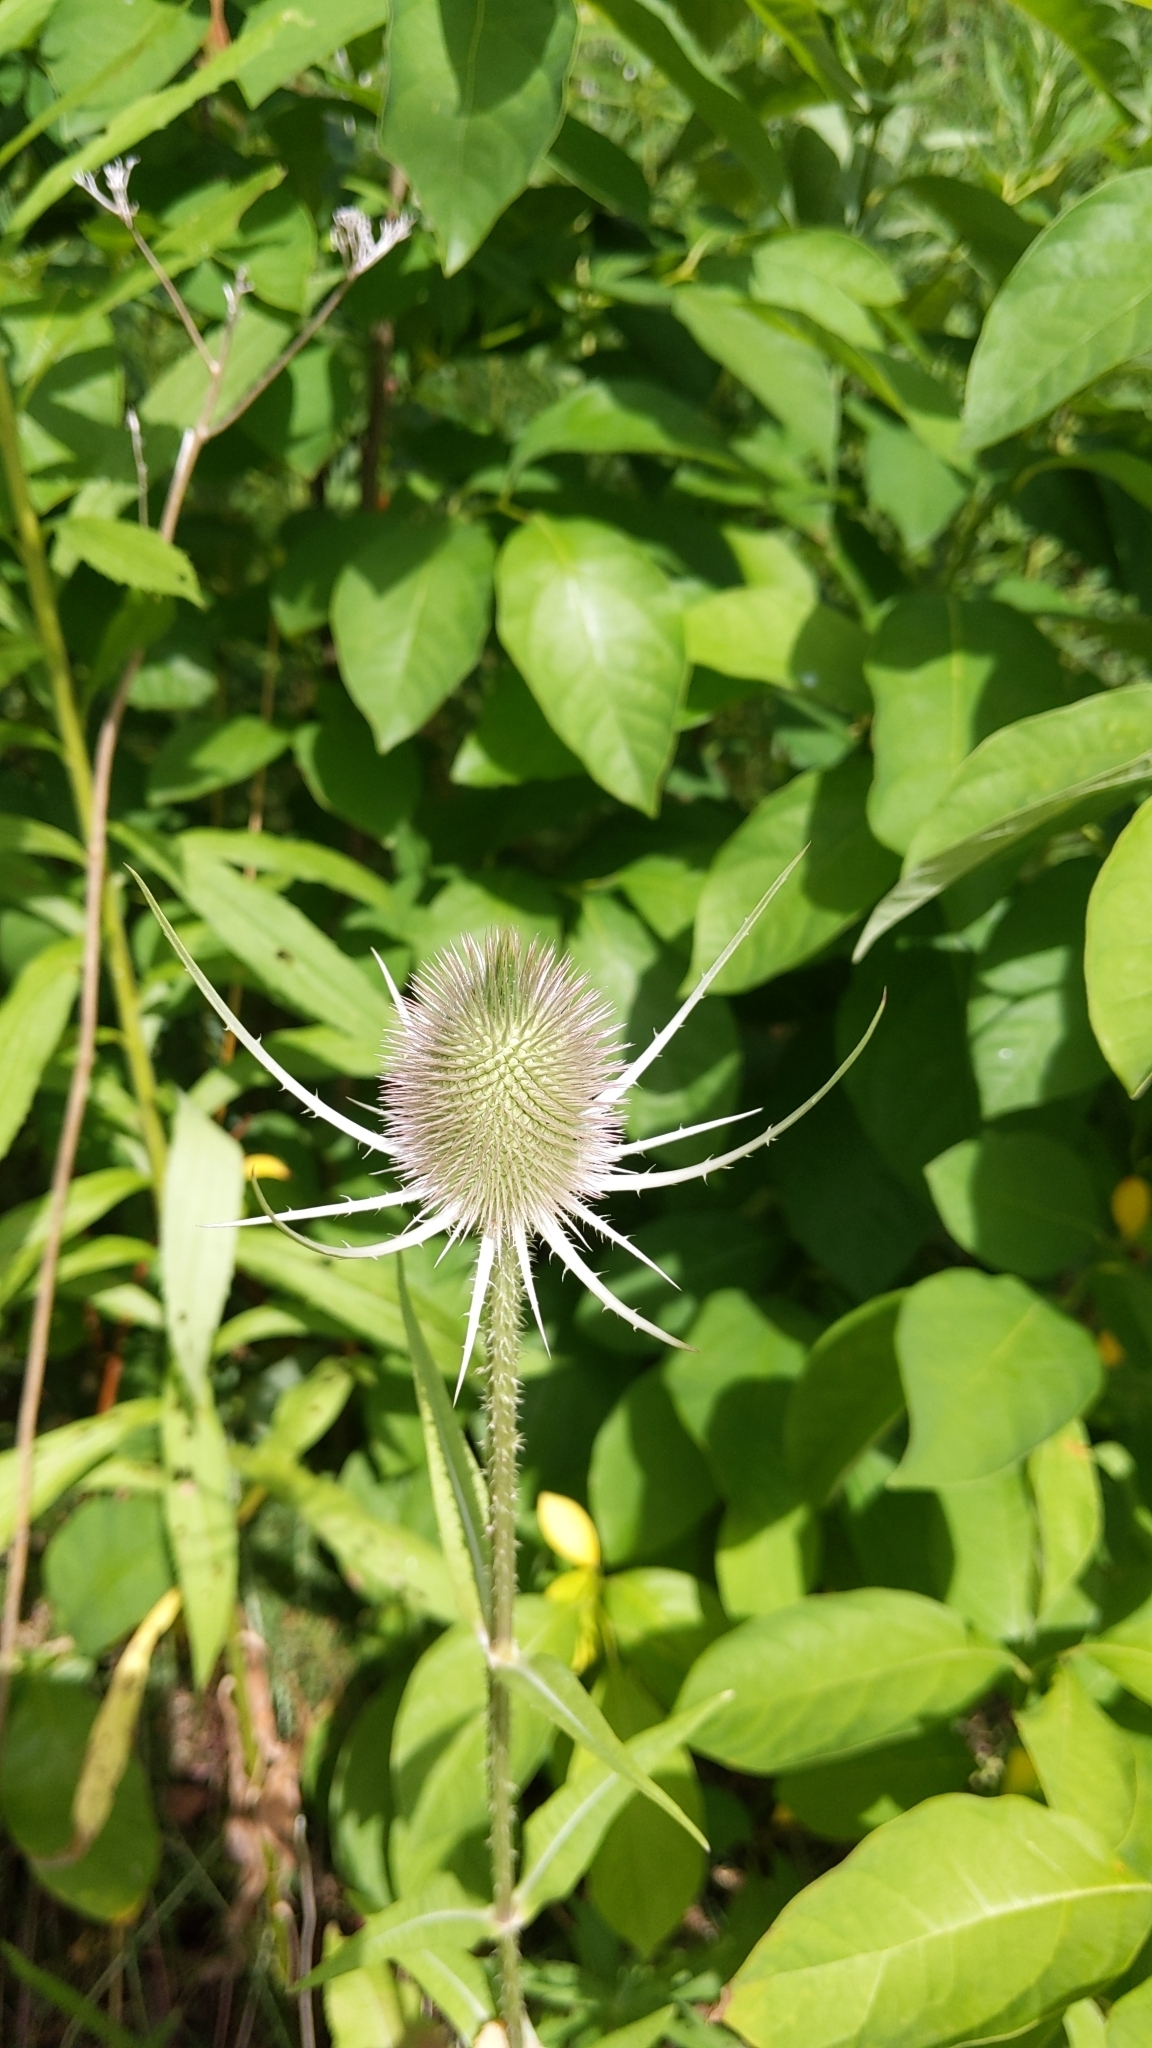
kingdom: Plantae
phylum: Tracheophyta
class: Magnoliopsida
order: Dipsacales
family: Caprifoliaceae
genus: Dipsacus
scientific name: Dipsacus fullonum
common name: Teasel
